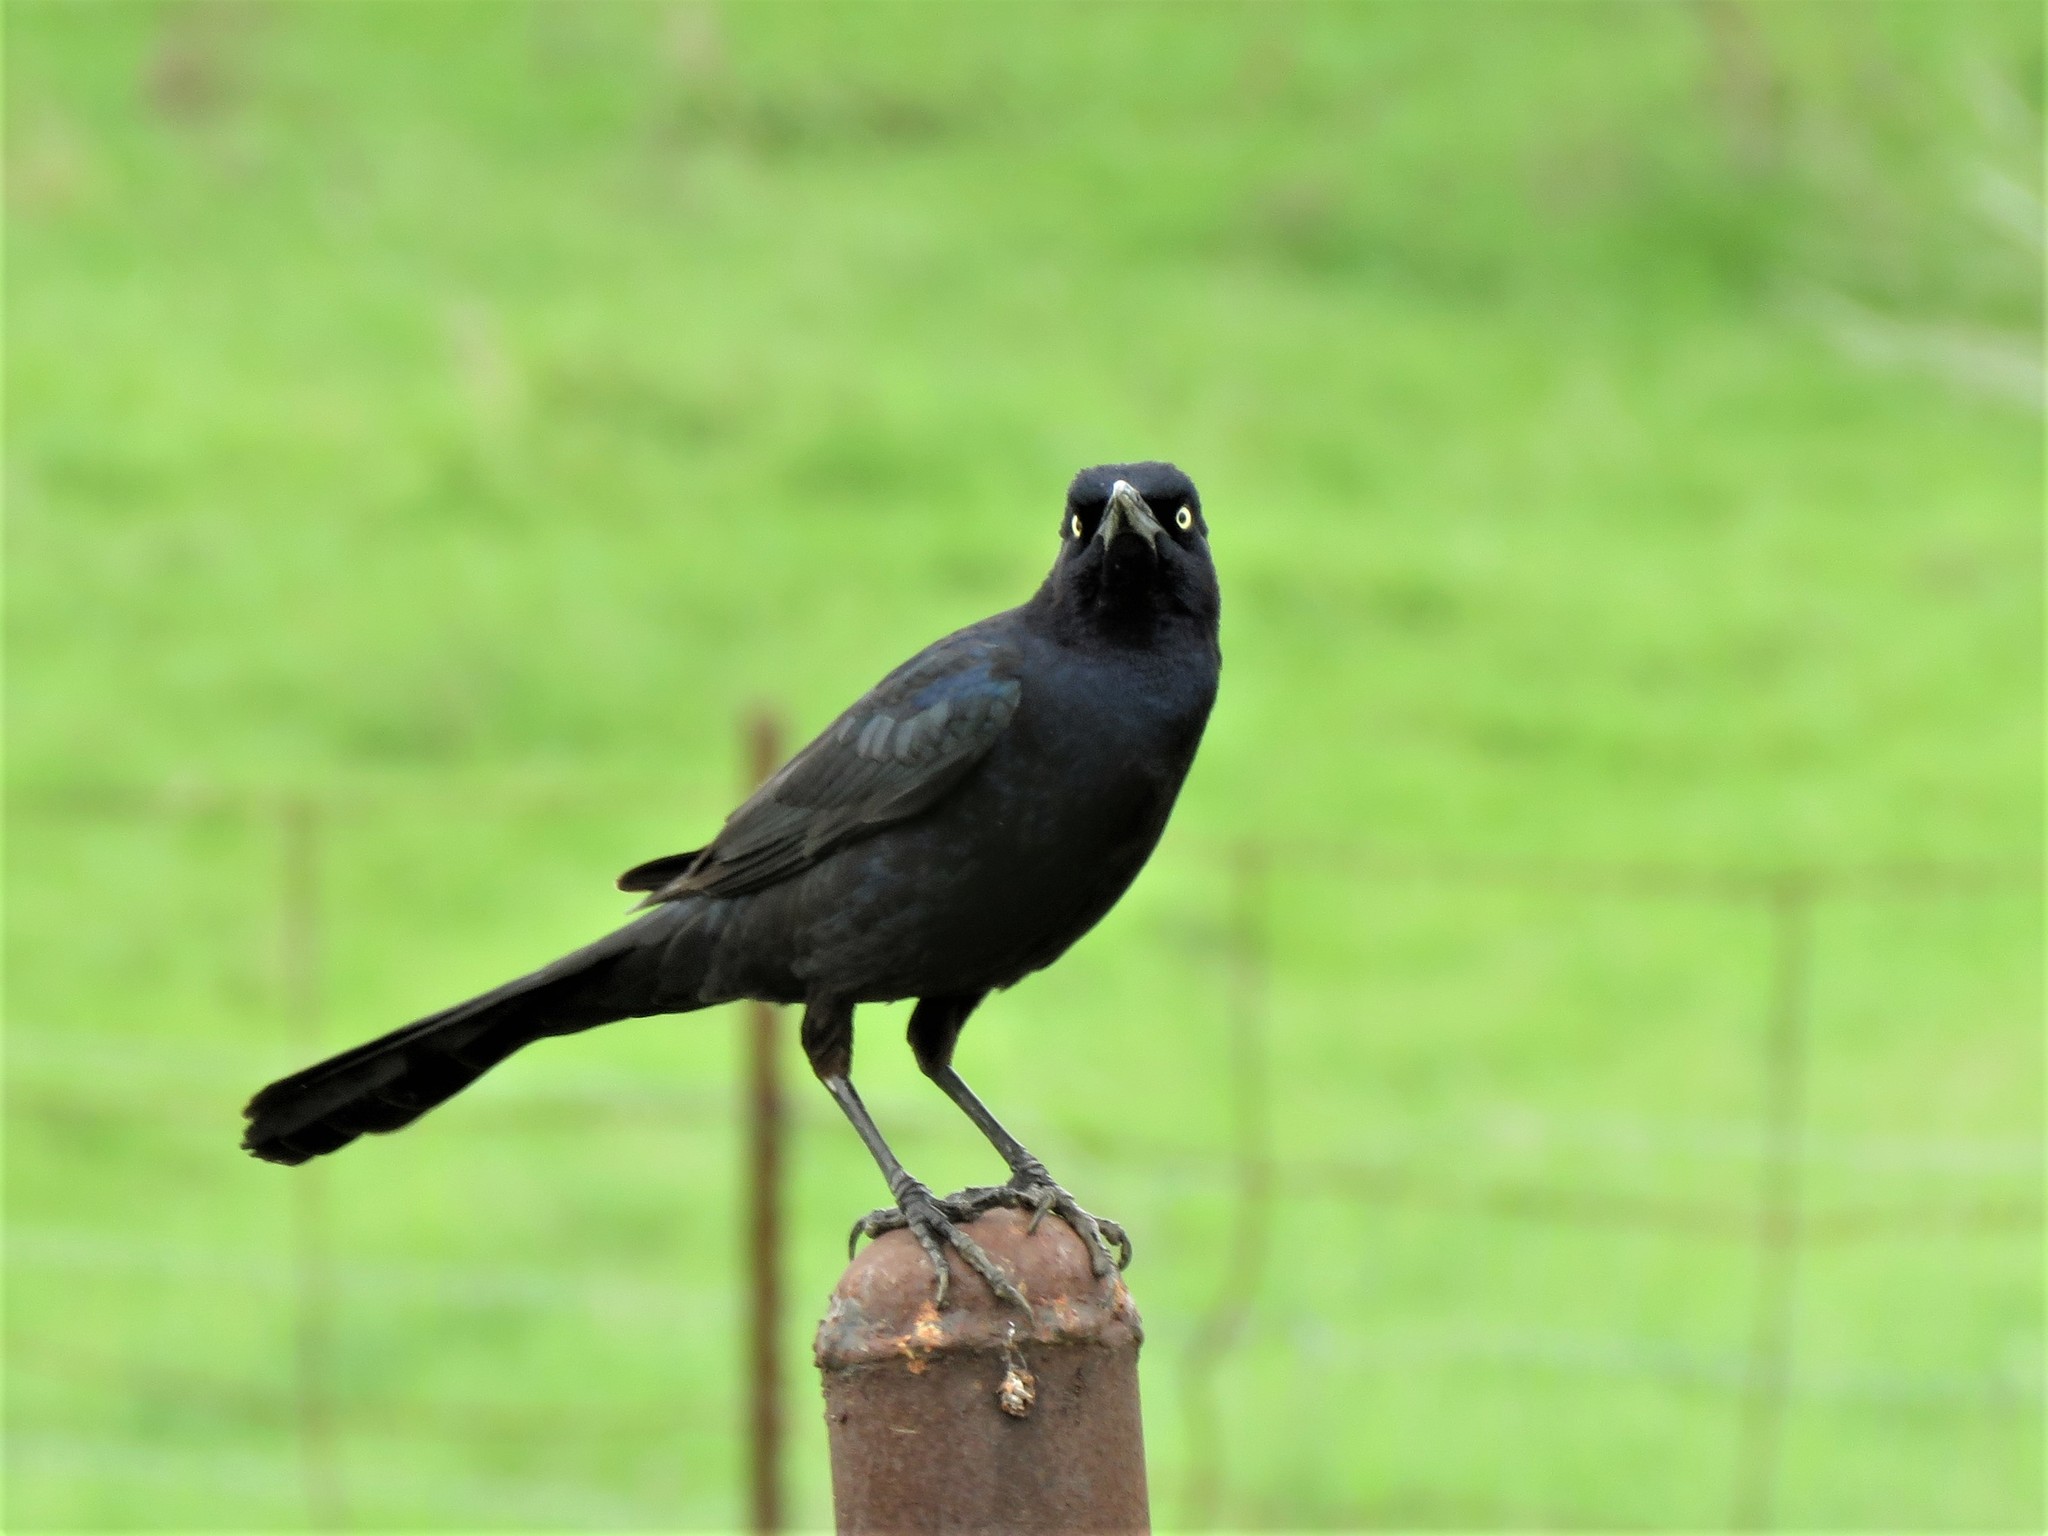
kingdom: Animalia
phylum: Chordata
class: Aves
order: Passeriformes
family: Icteridae
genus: Quiscalus
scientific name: Quiscalus mexicanus
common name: Great-tailed grackle
